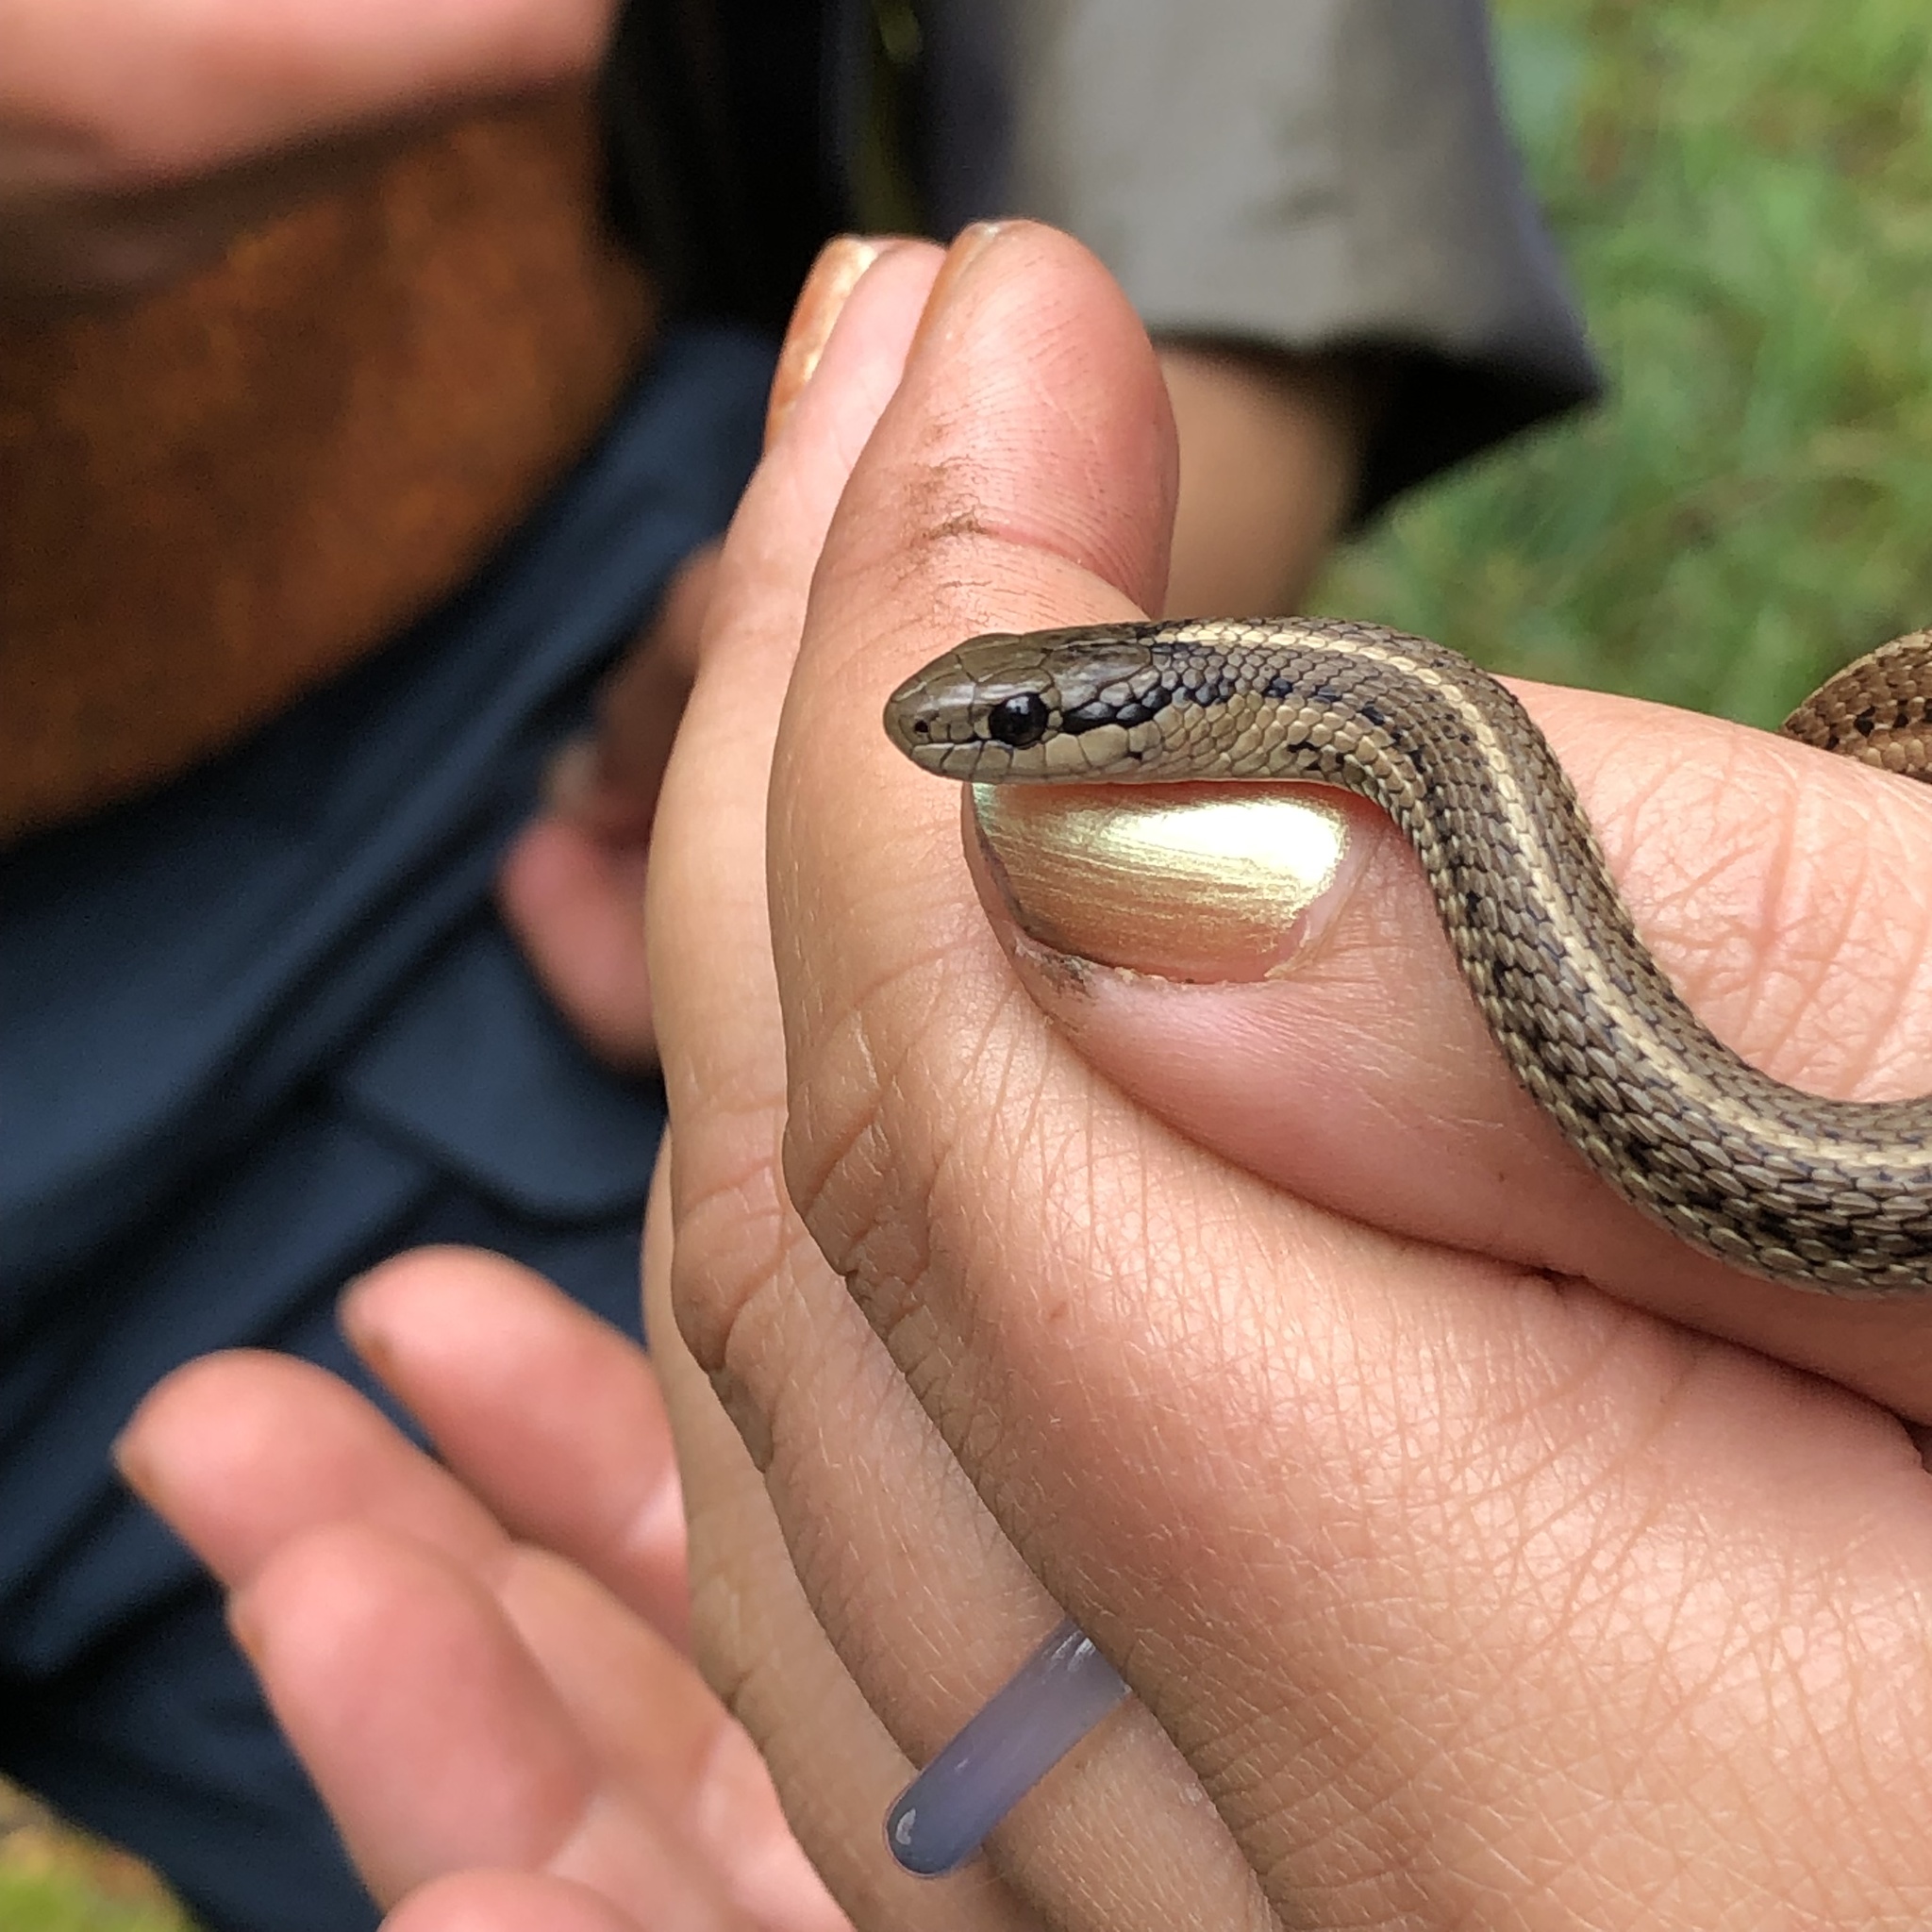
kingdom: Animalia
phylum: Chordata
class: Squamata
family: Colubridae
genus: Thamnophis
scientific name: Thamnophis ordinoides
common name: Northwestern garter snake
